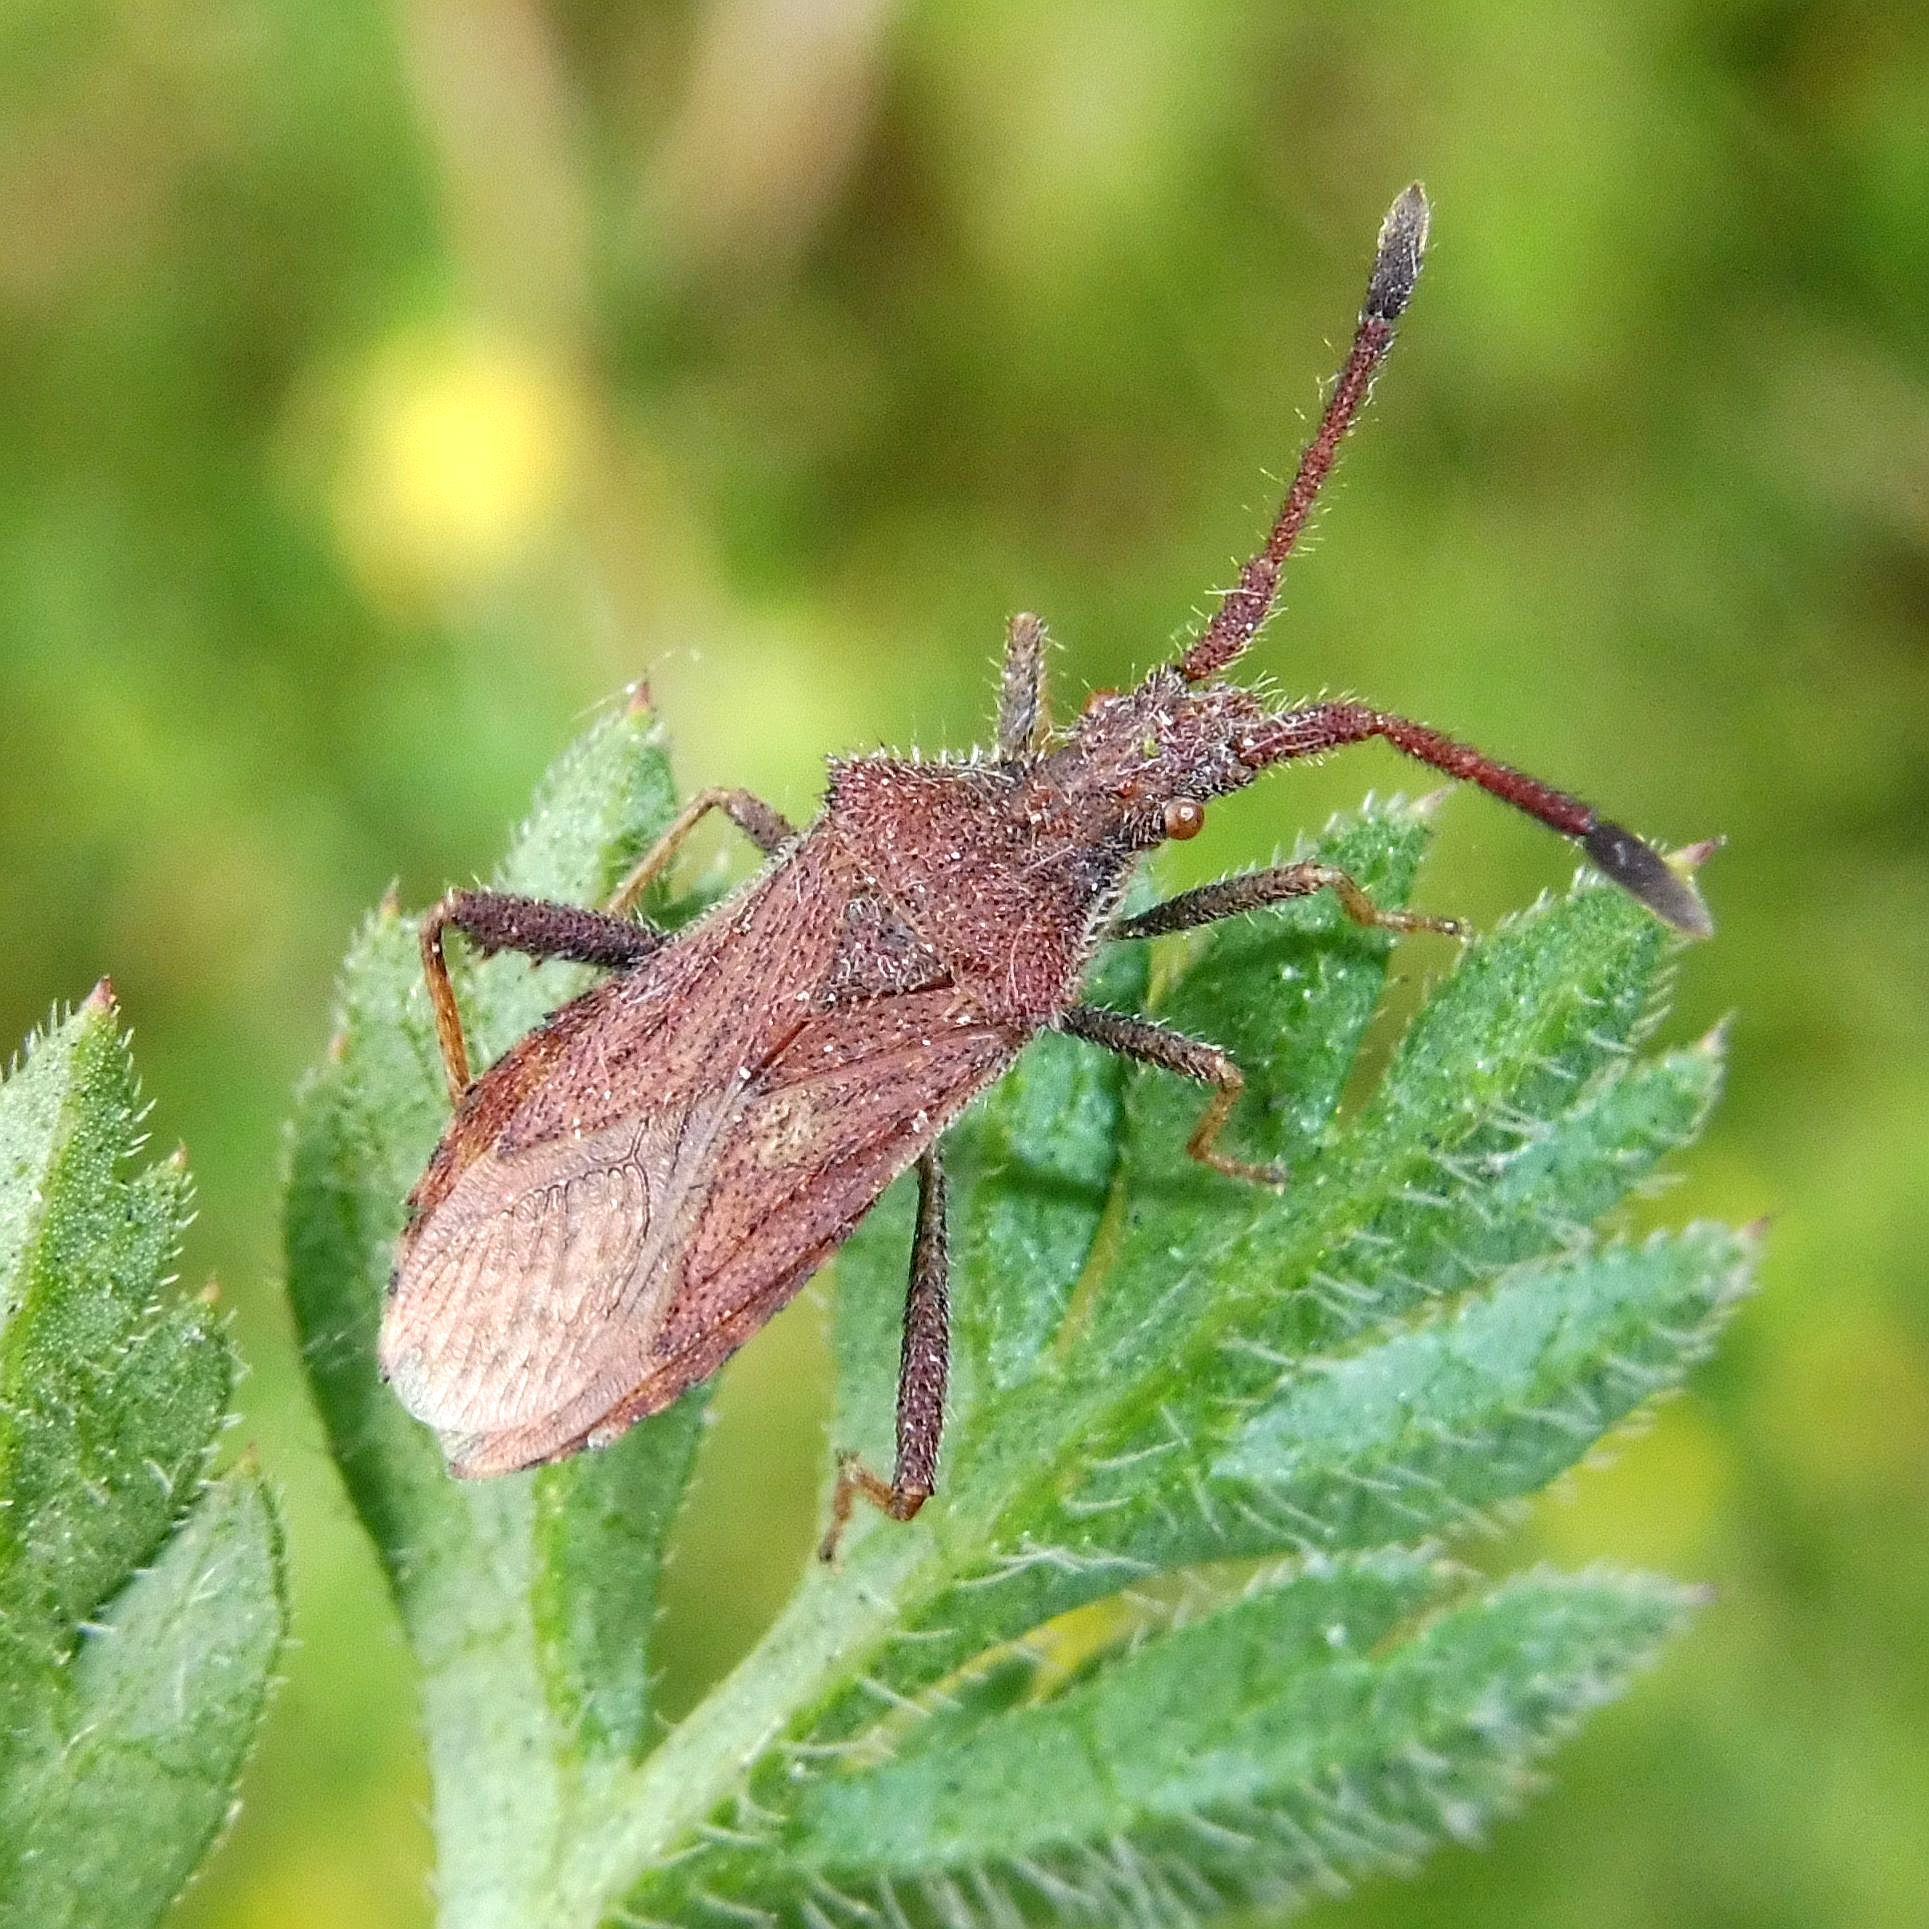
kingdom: Animalia
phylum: Arthropoda
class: Insecta
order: Hemiptera
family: Coreidae
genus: Coriomeris
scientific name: Coriomeris denticulatus
